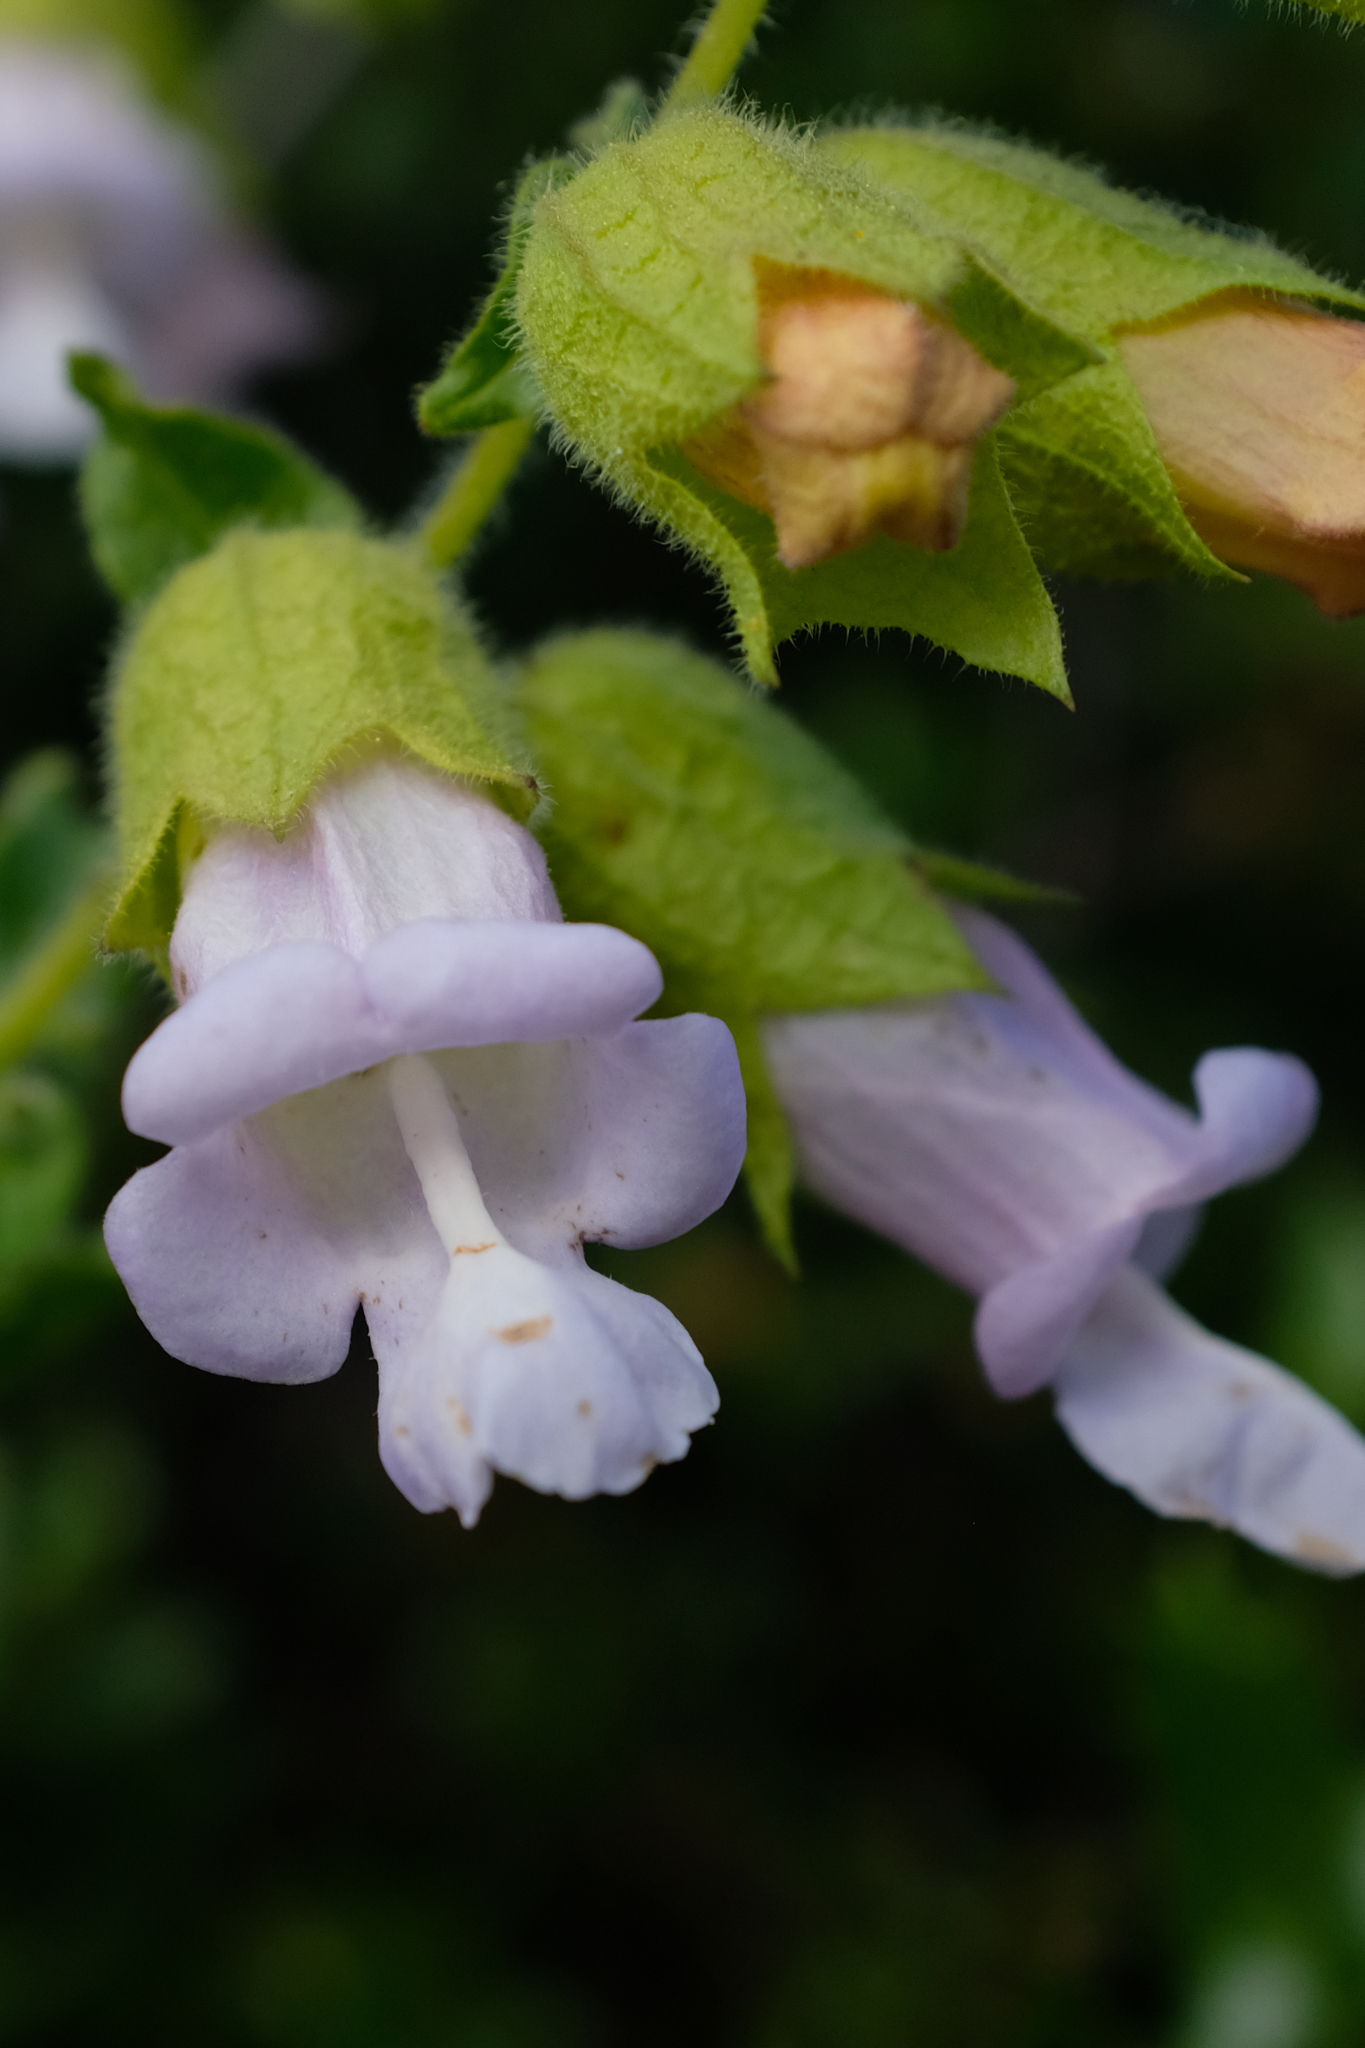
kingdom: Plantae
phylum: Tracheophyta
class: Magnoliopsida
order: Lamiales
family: Lamiaceae
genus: Lepechinia
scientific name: Lepechinia calycina
